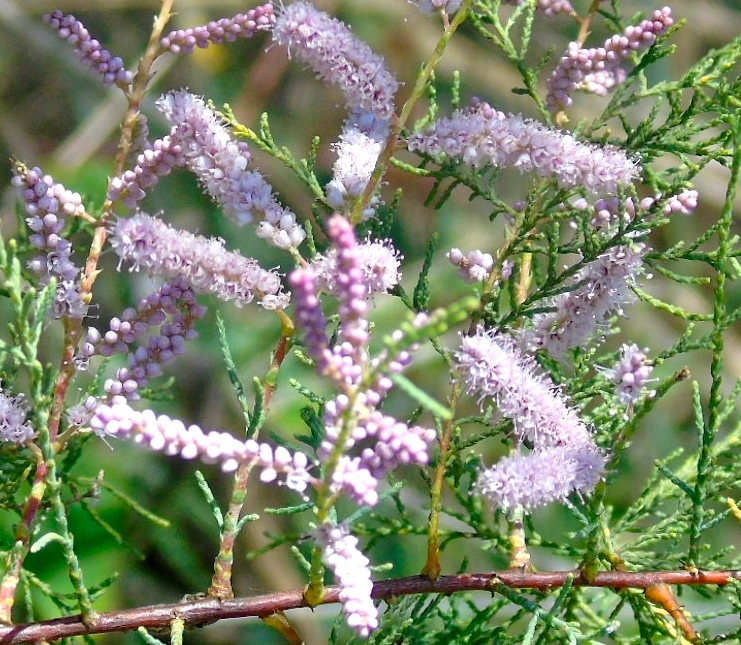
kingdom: Plantae
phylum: Tracheophyta
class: Magnoliopsida
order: Caryophyllales
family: Tamaricaceae
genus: Tamarix
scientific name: Tamarix
